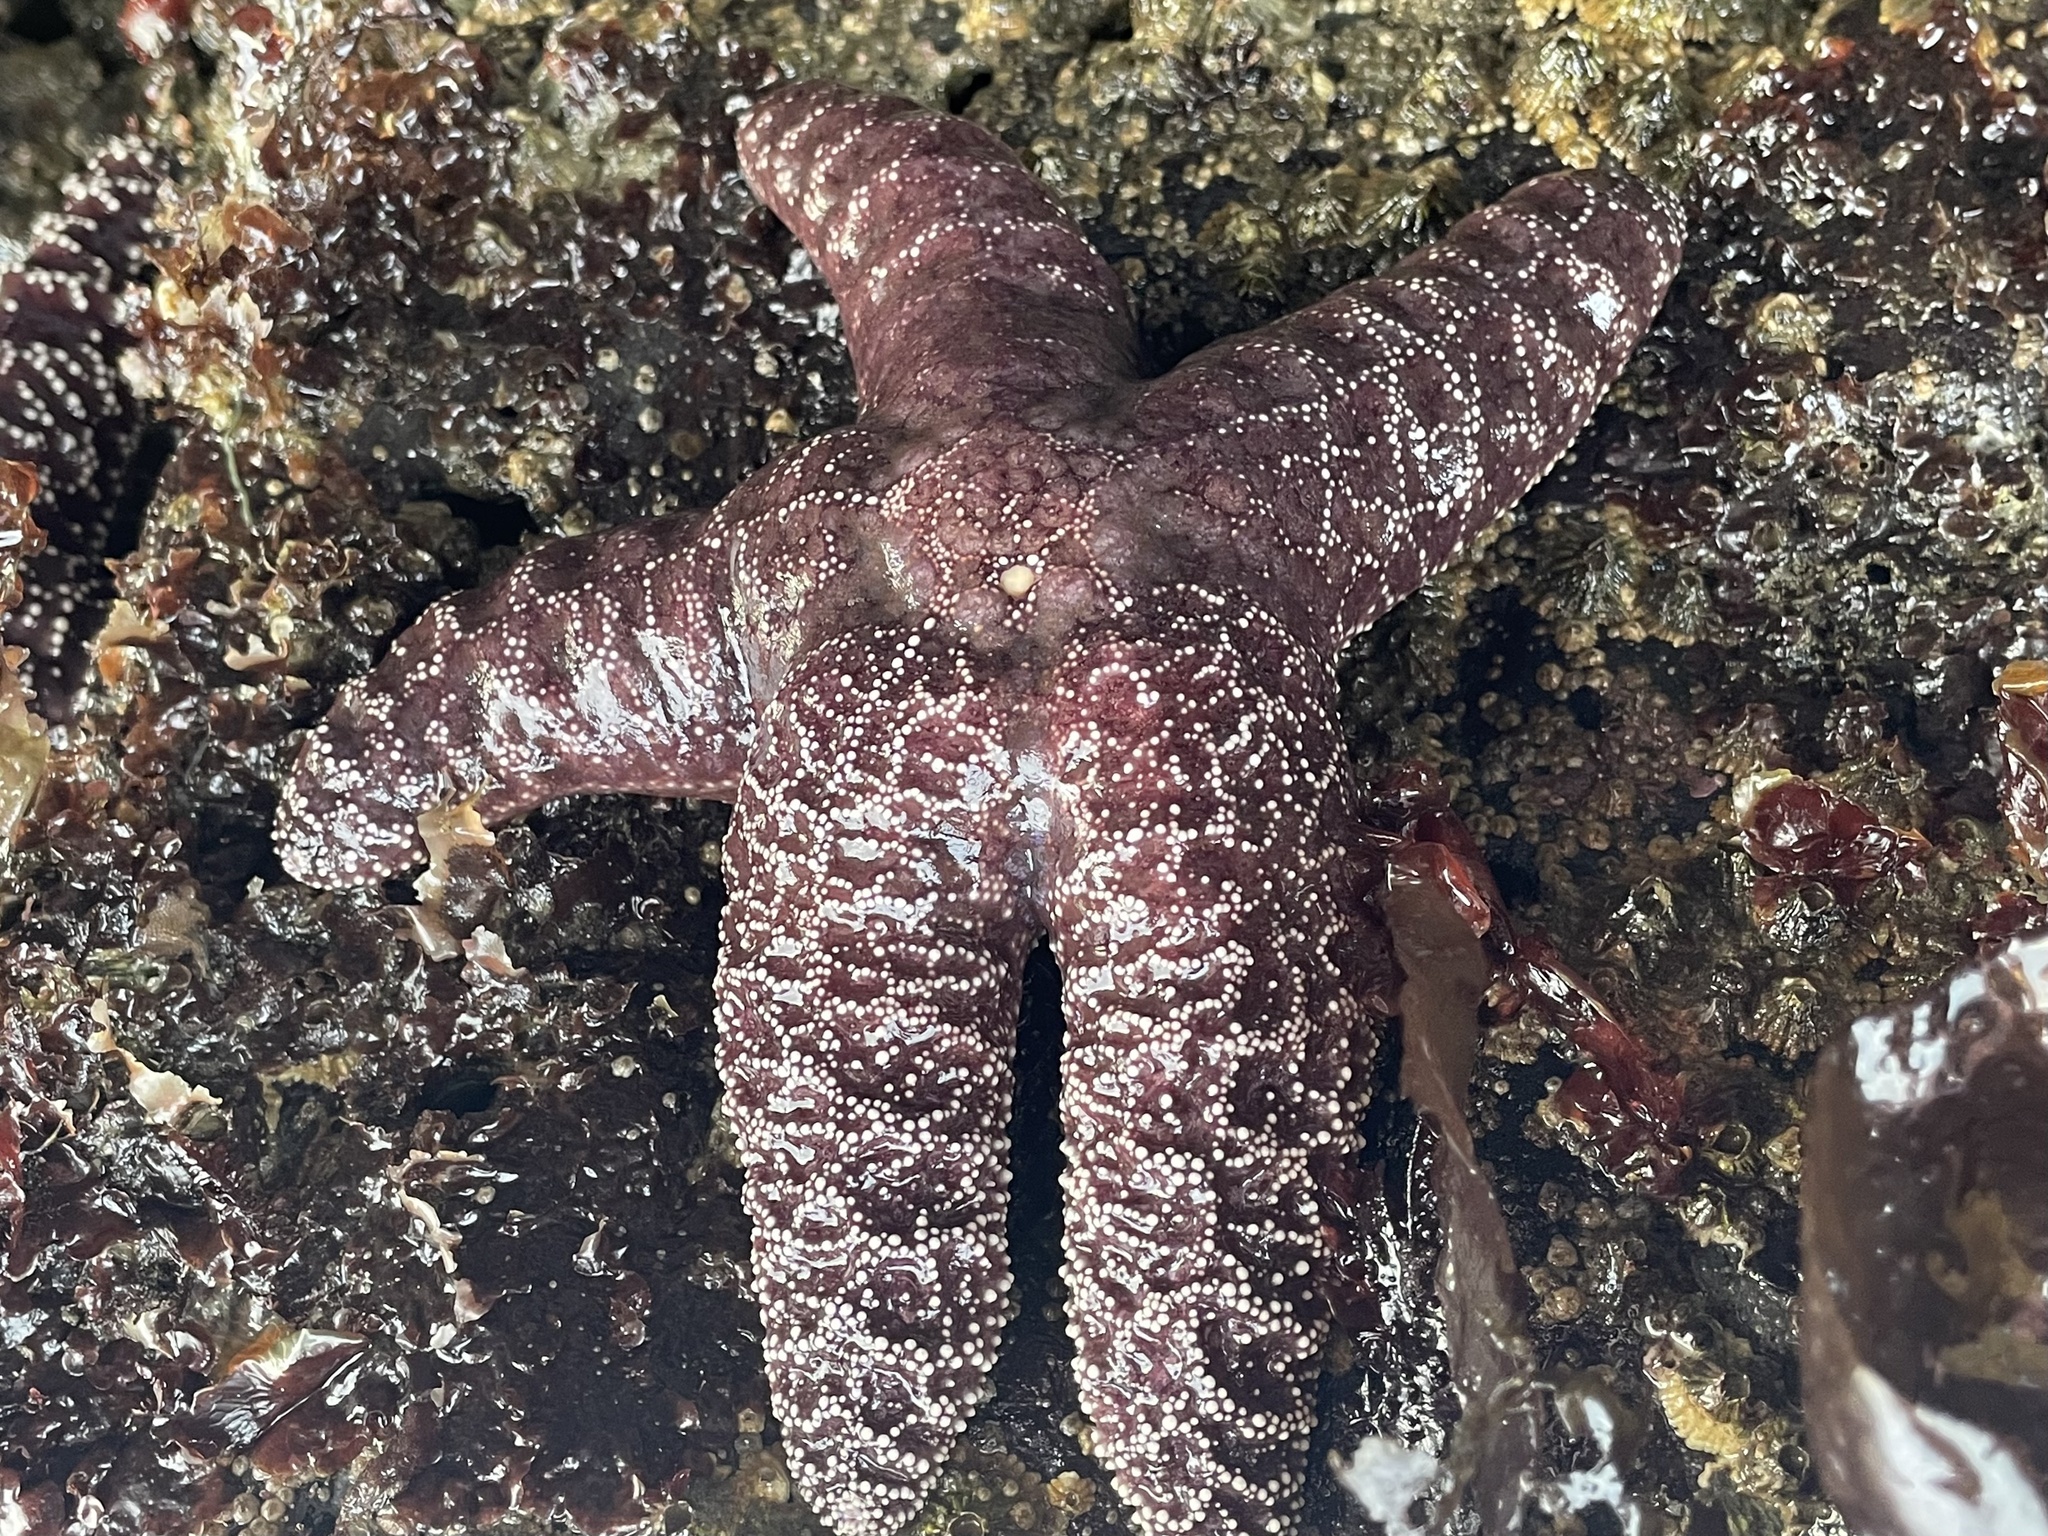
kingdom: Animalia
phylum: Echinodermata
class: Asteroidea
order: Forcipulatida
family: Asteriidae
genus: Pisaster
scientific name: Pisaster ochraceus
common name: Ochre stars
